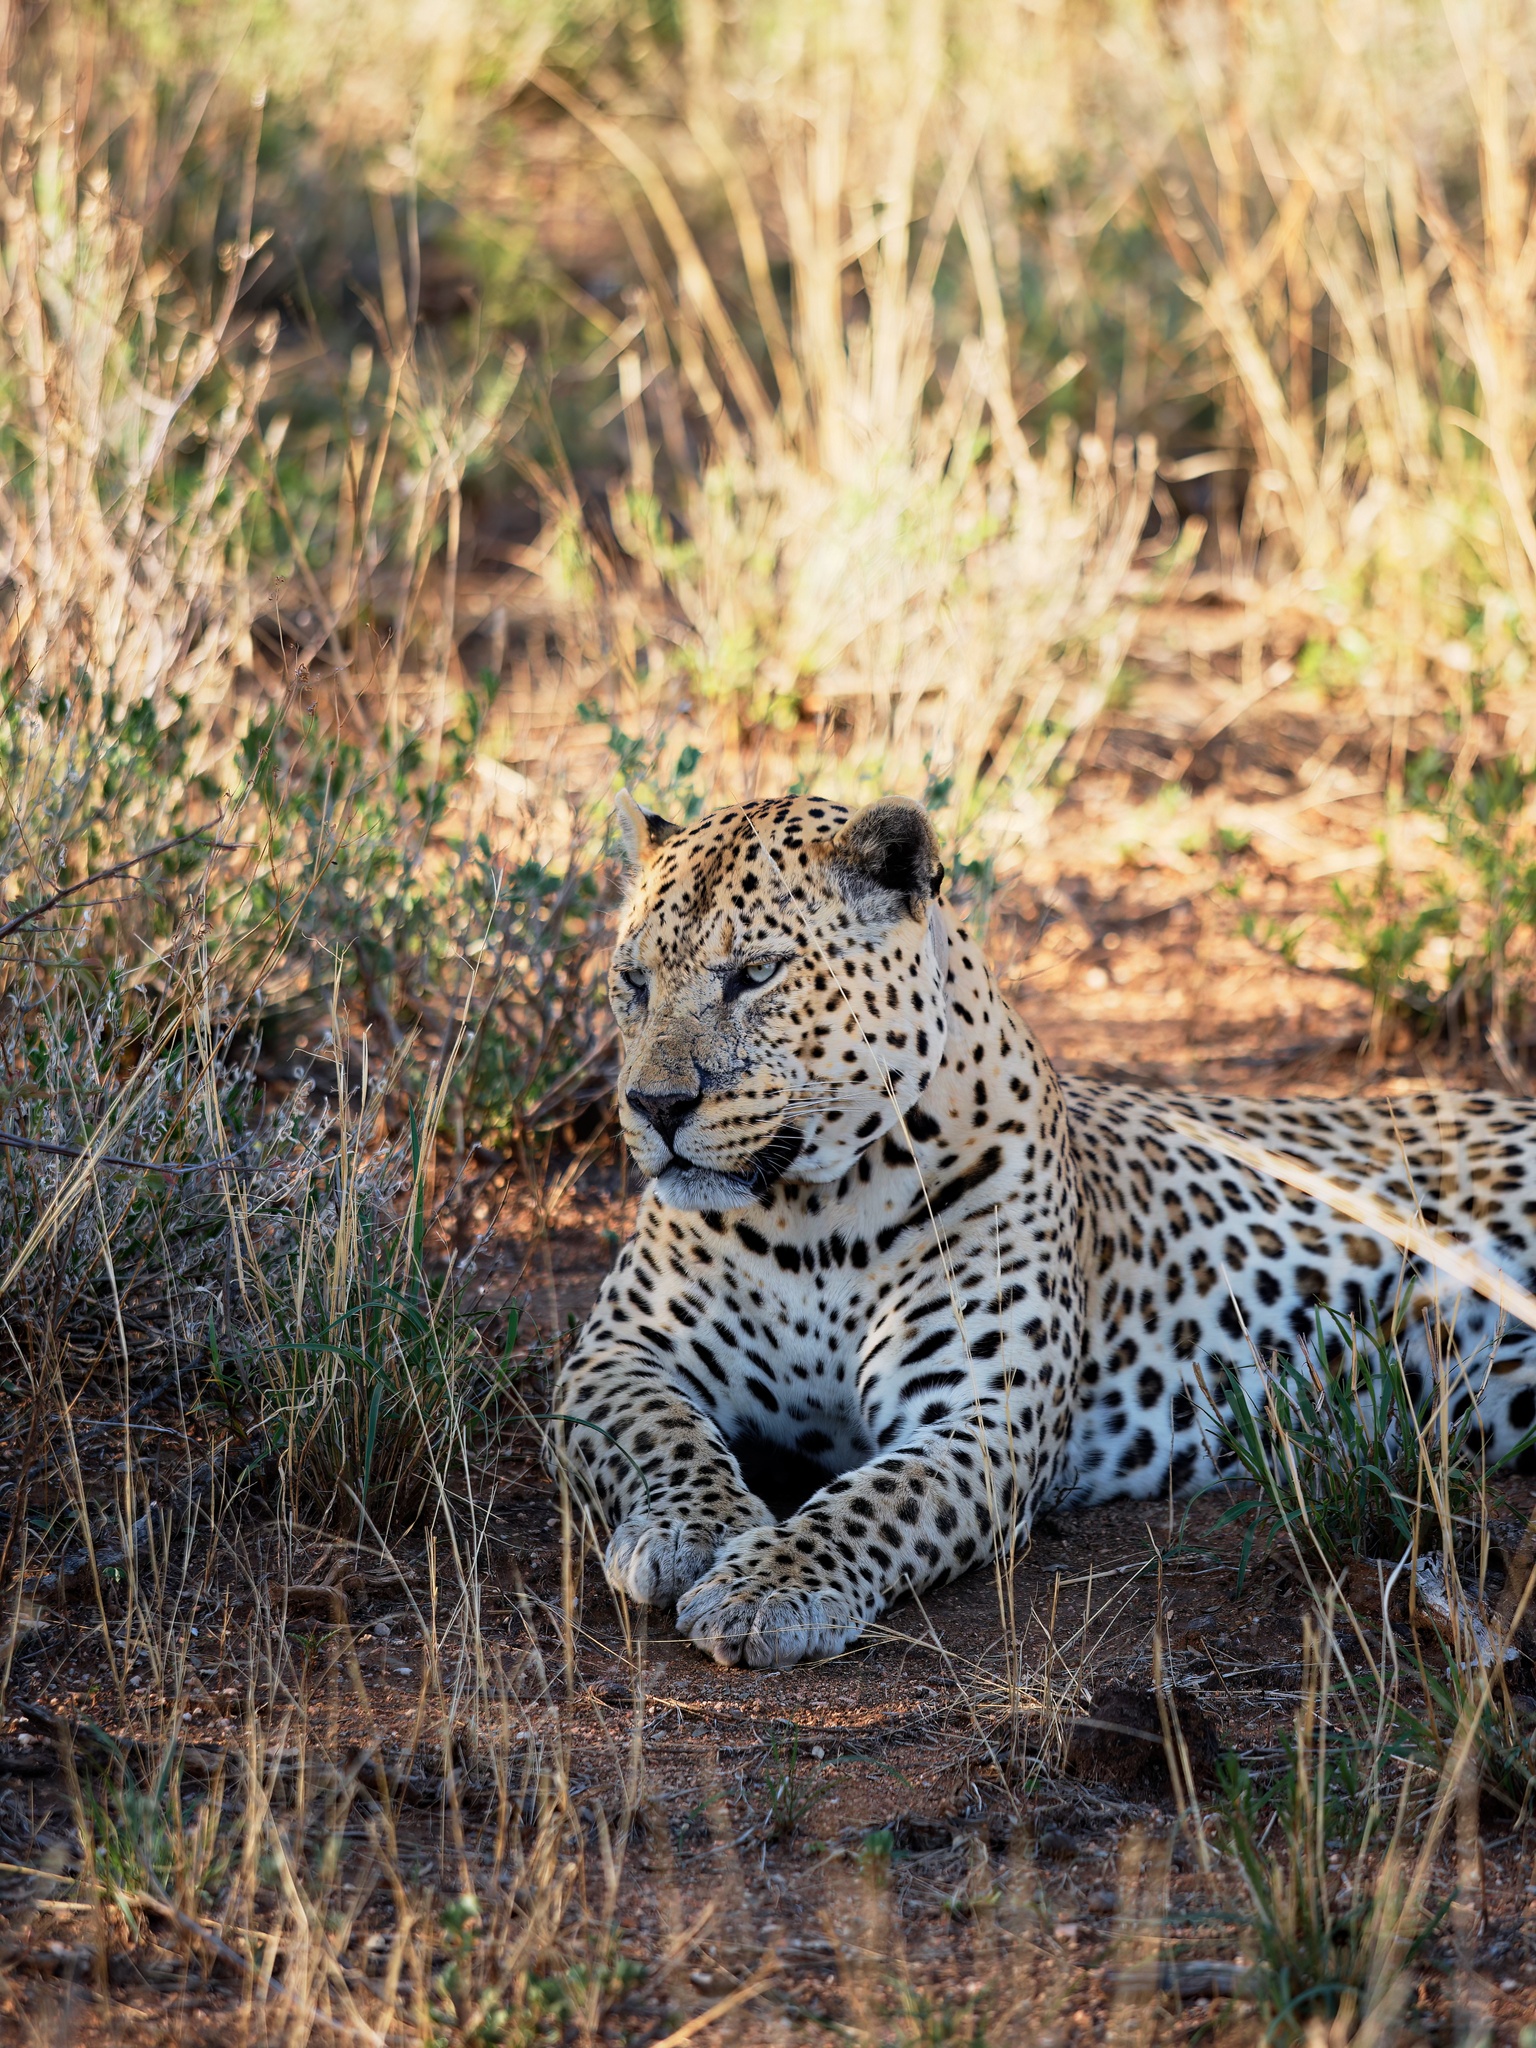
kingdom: Animalia
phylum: Chordata
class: Mammalia
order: Carnivora
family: Felidae
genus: Panthera
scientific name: Panthera pardus
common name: Leopard
